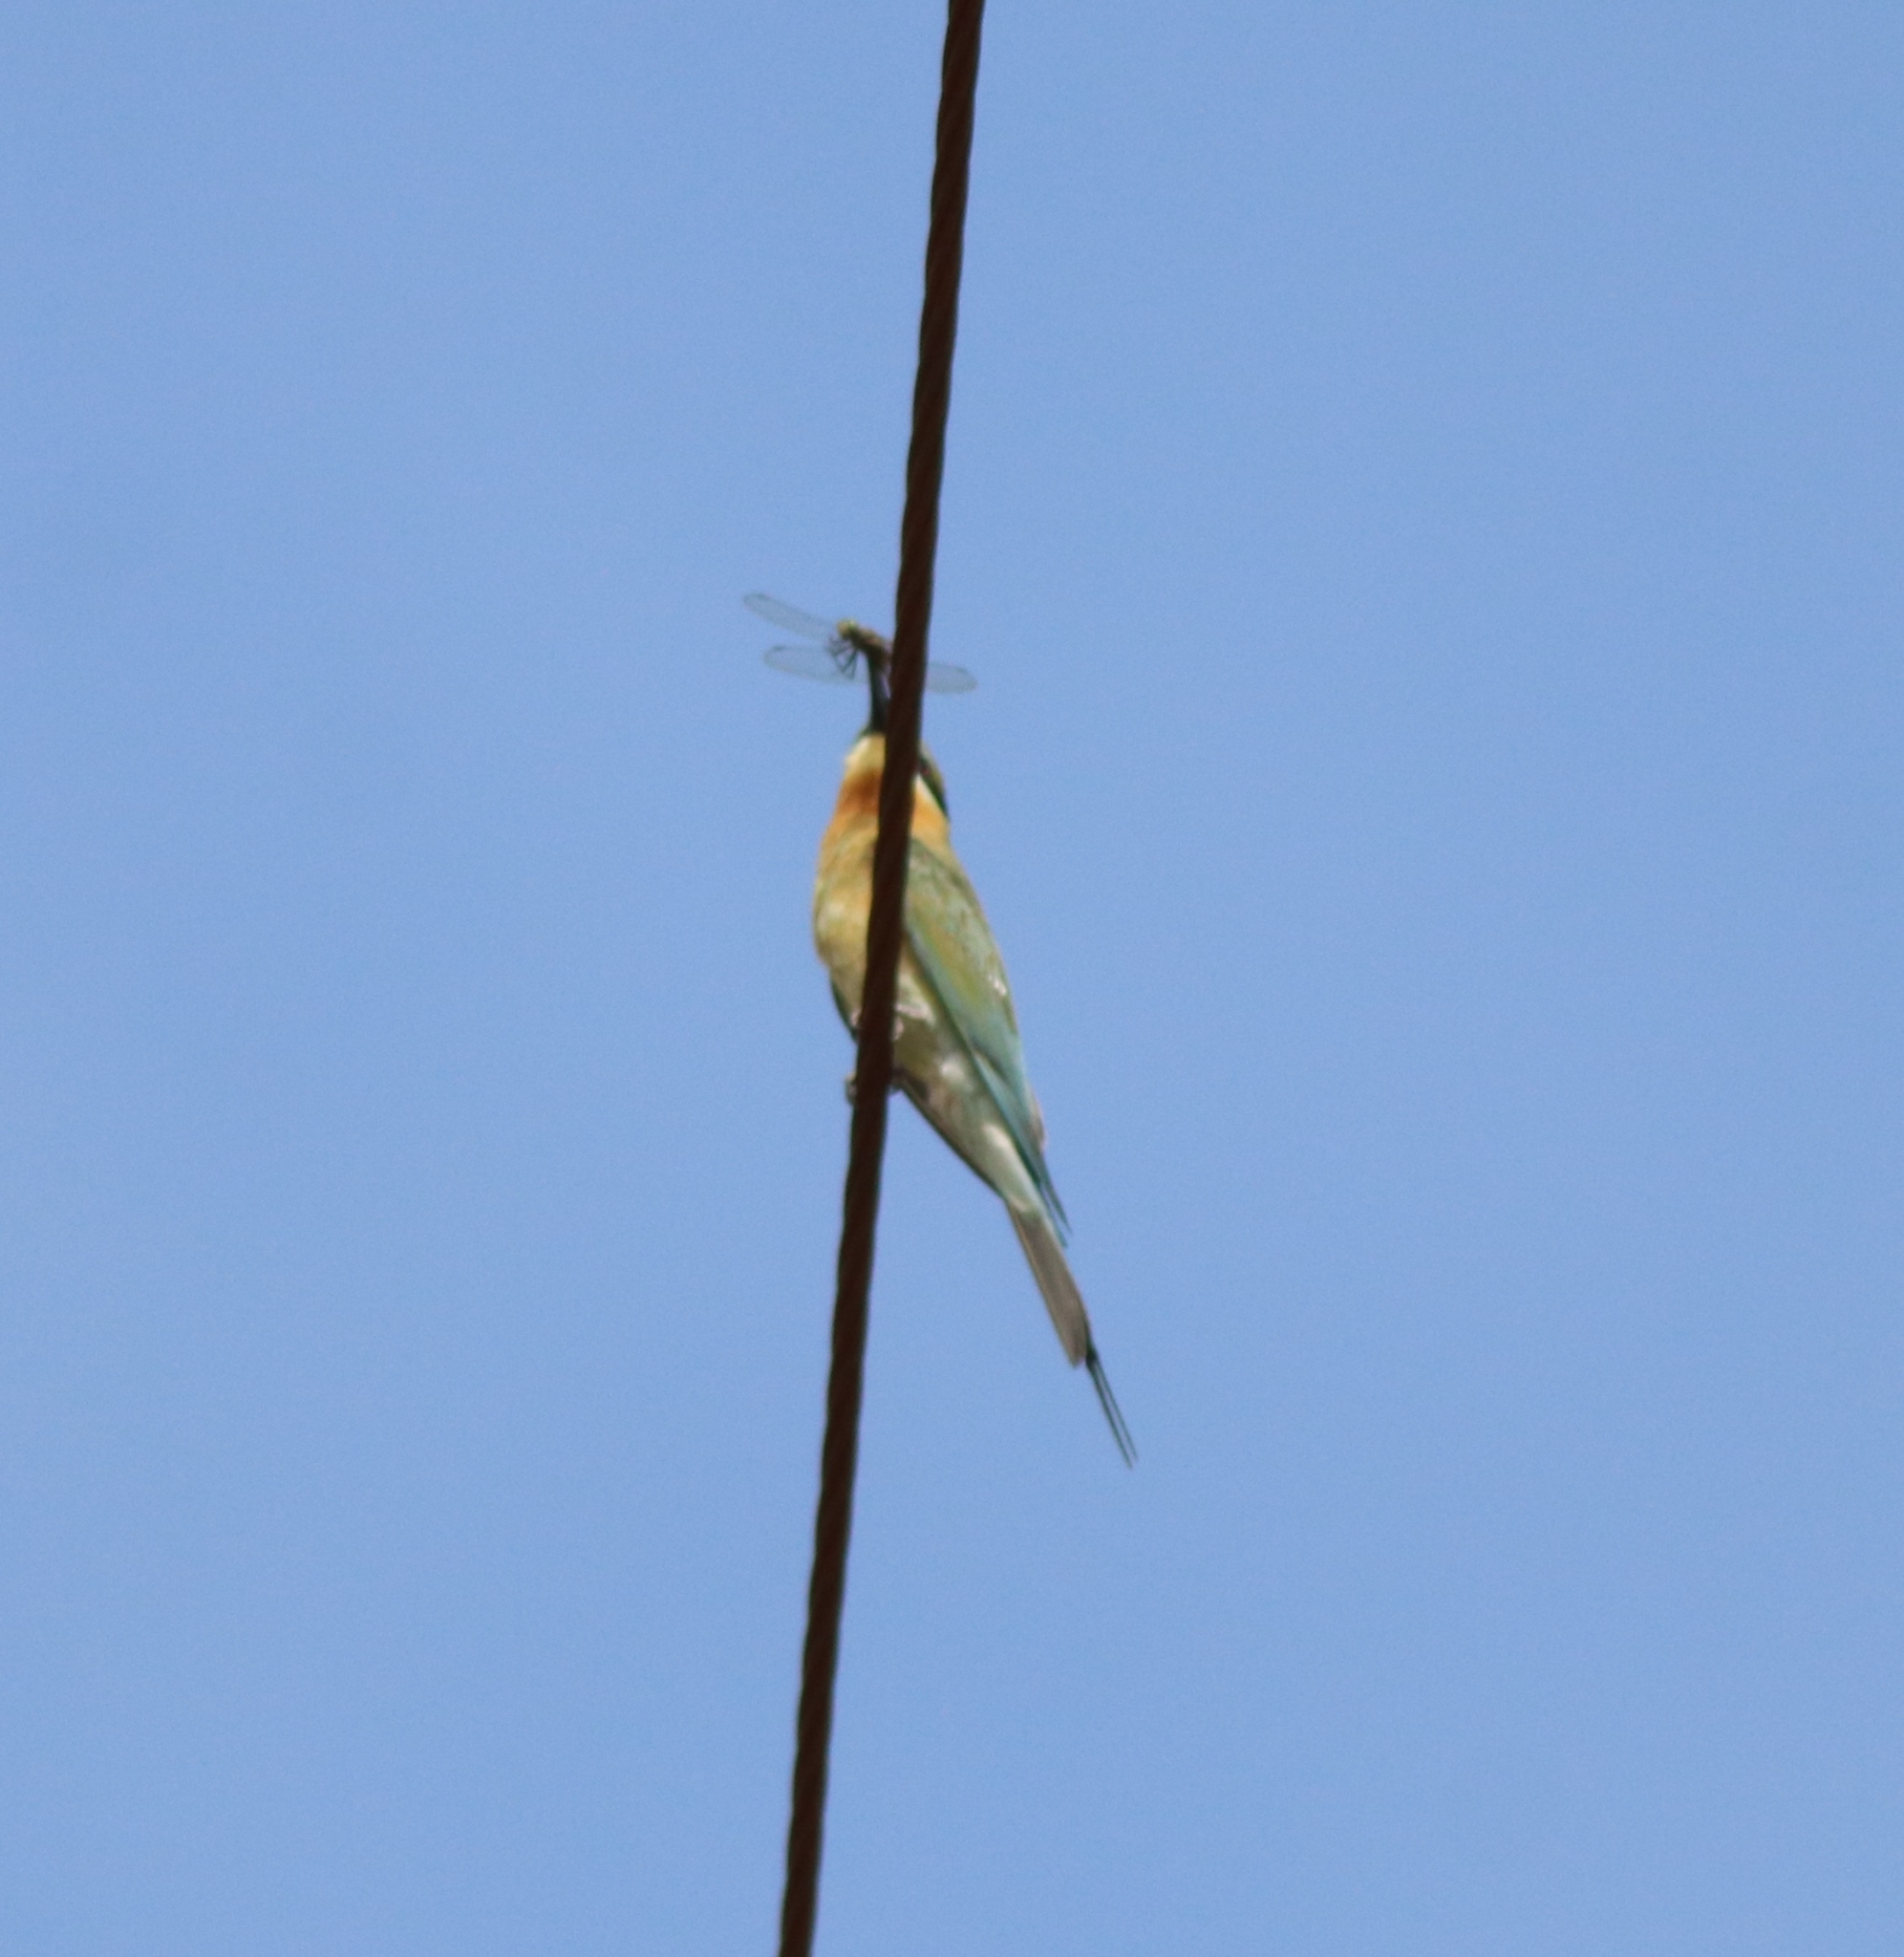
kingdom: Animalia
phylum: Chordata
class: Aves
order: Coraciiformes
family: Meropidae
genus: Merops
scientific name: Merops philippinus
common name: Blue-tailed bee-eater
